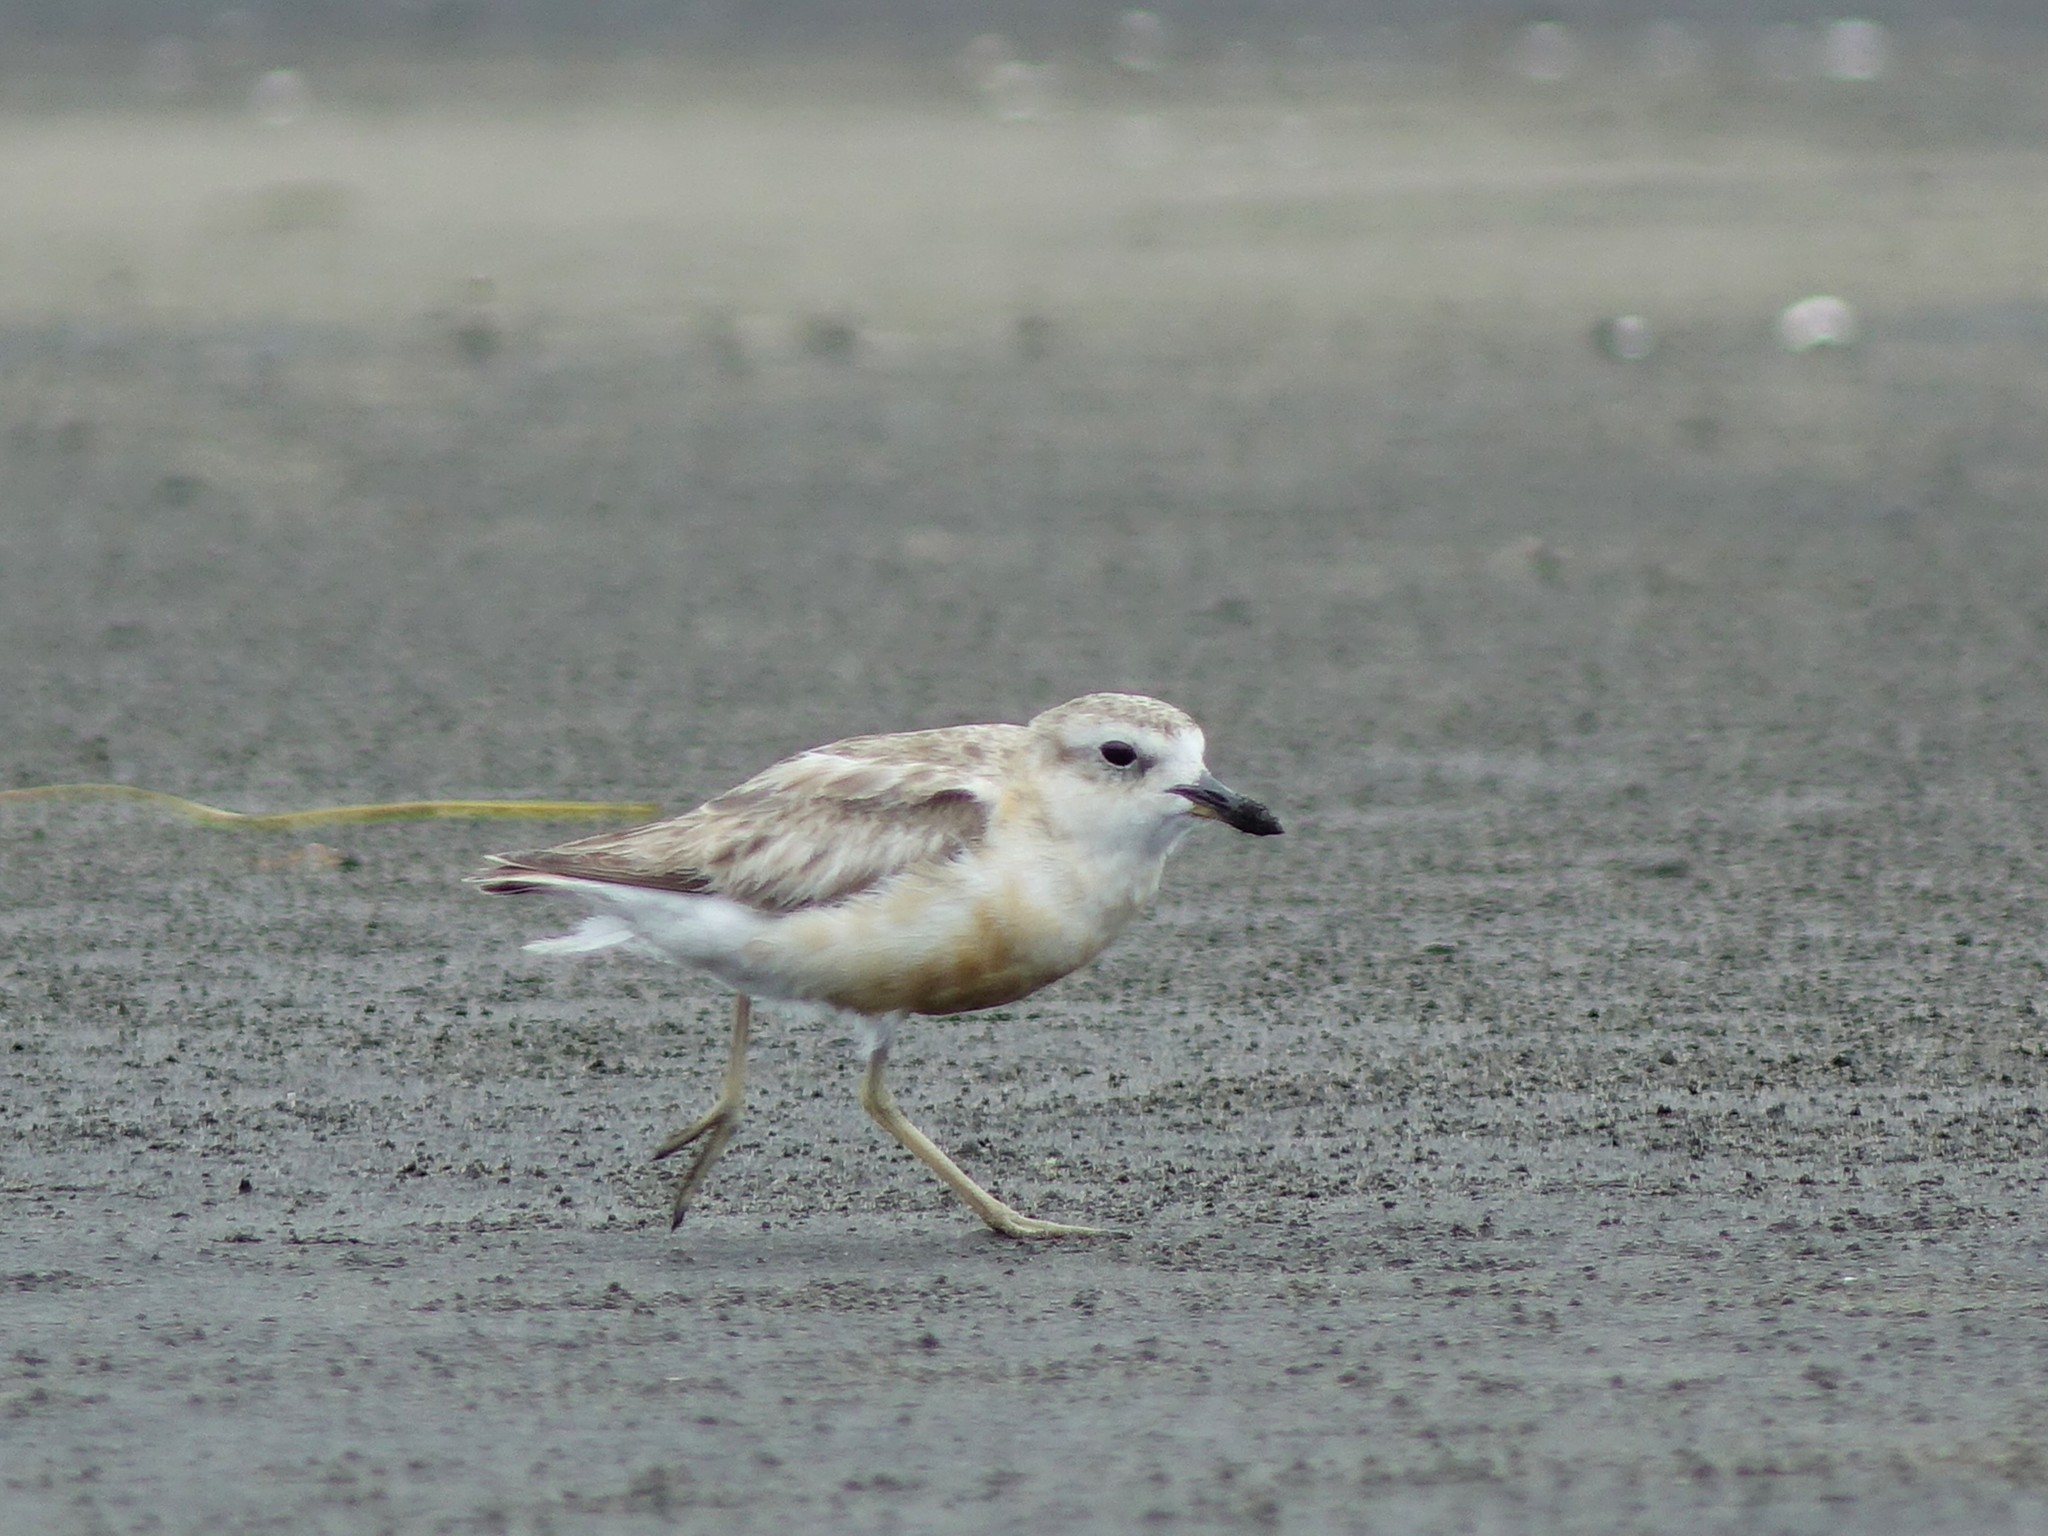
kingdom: Animalia
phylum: Chordata
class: Aves
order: Charadriiformes
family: Charadriidae
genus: Anarhynchus
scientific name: Anarhynchus
